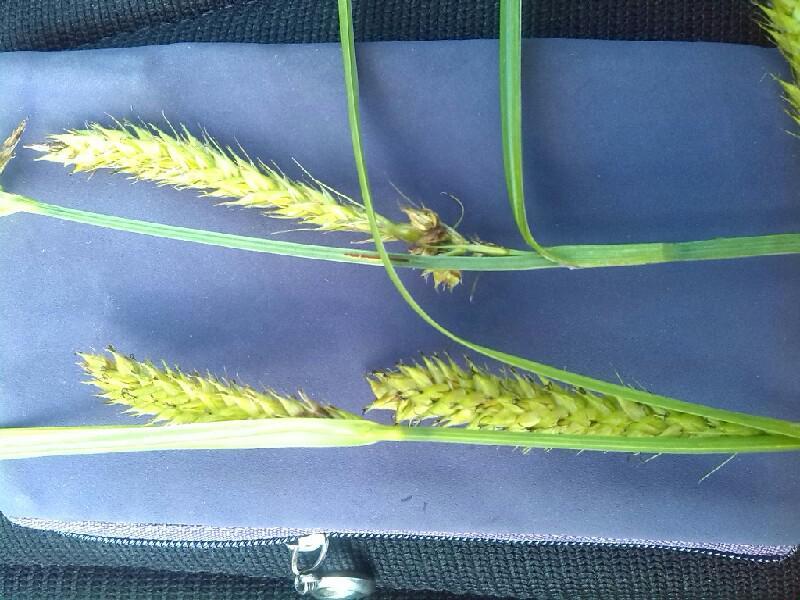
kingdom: Plantae
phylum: Tracheophyta
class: Liliopsida
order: Poales
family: Cyperaceae
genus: Carex
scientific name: Carex walasii
